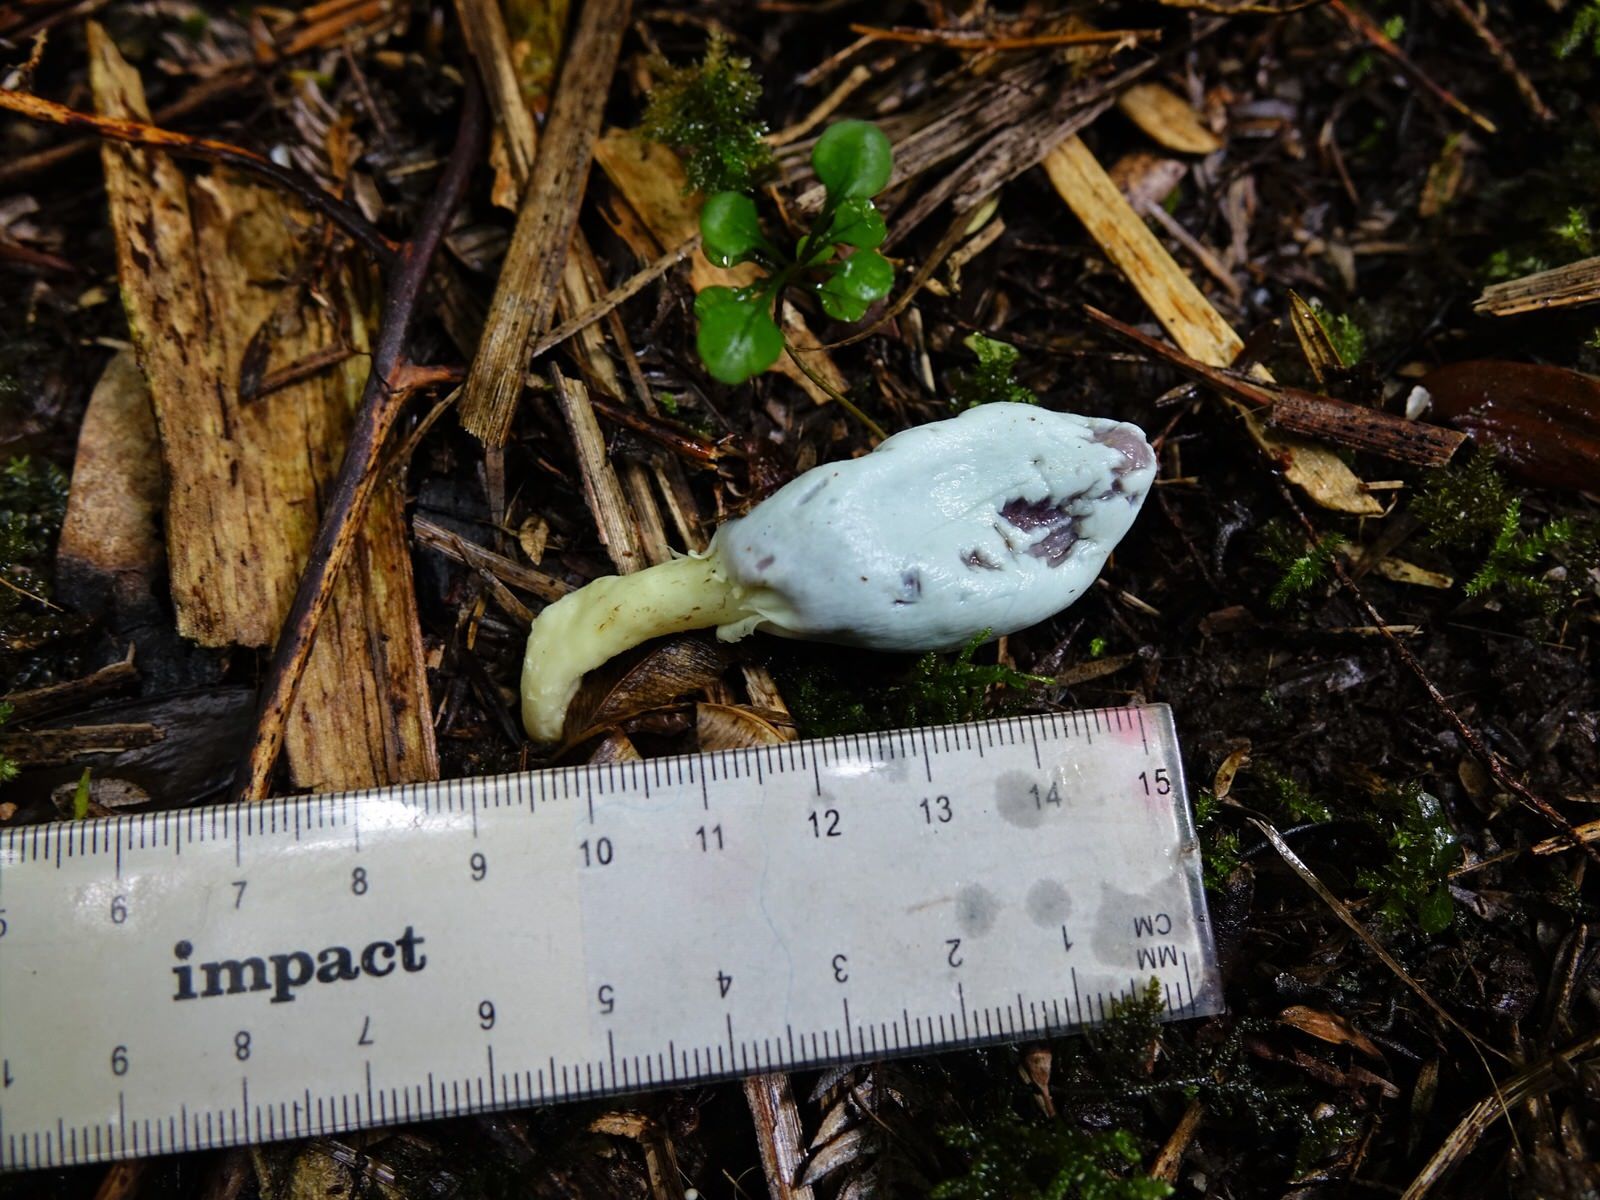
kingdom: Fungi
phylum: Basidiomycota
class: Agaricomycetes
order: Agaricales
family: Agaricaceae
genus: Clavogaster
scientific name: Clavogaster virescens
